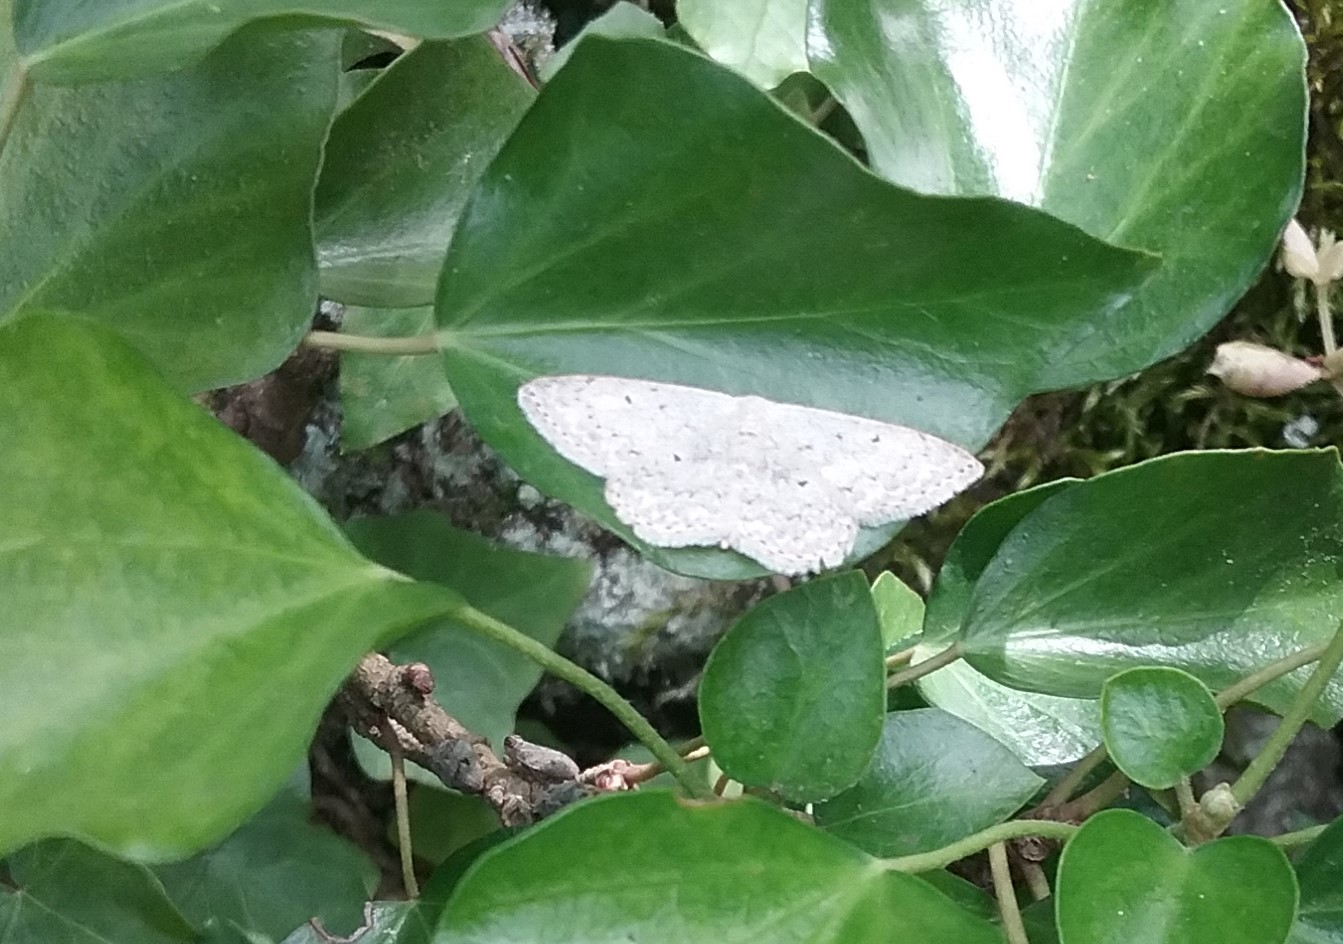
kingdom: Animalia
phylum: Arthropoda
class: Insecta
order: Lepidoptera
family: Geometridae
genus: Idaea
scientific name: Idaea seriata
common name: Small dusty wave
